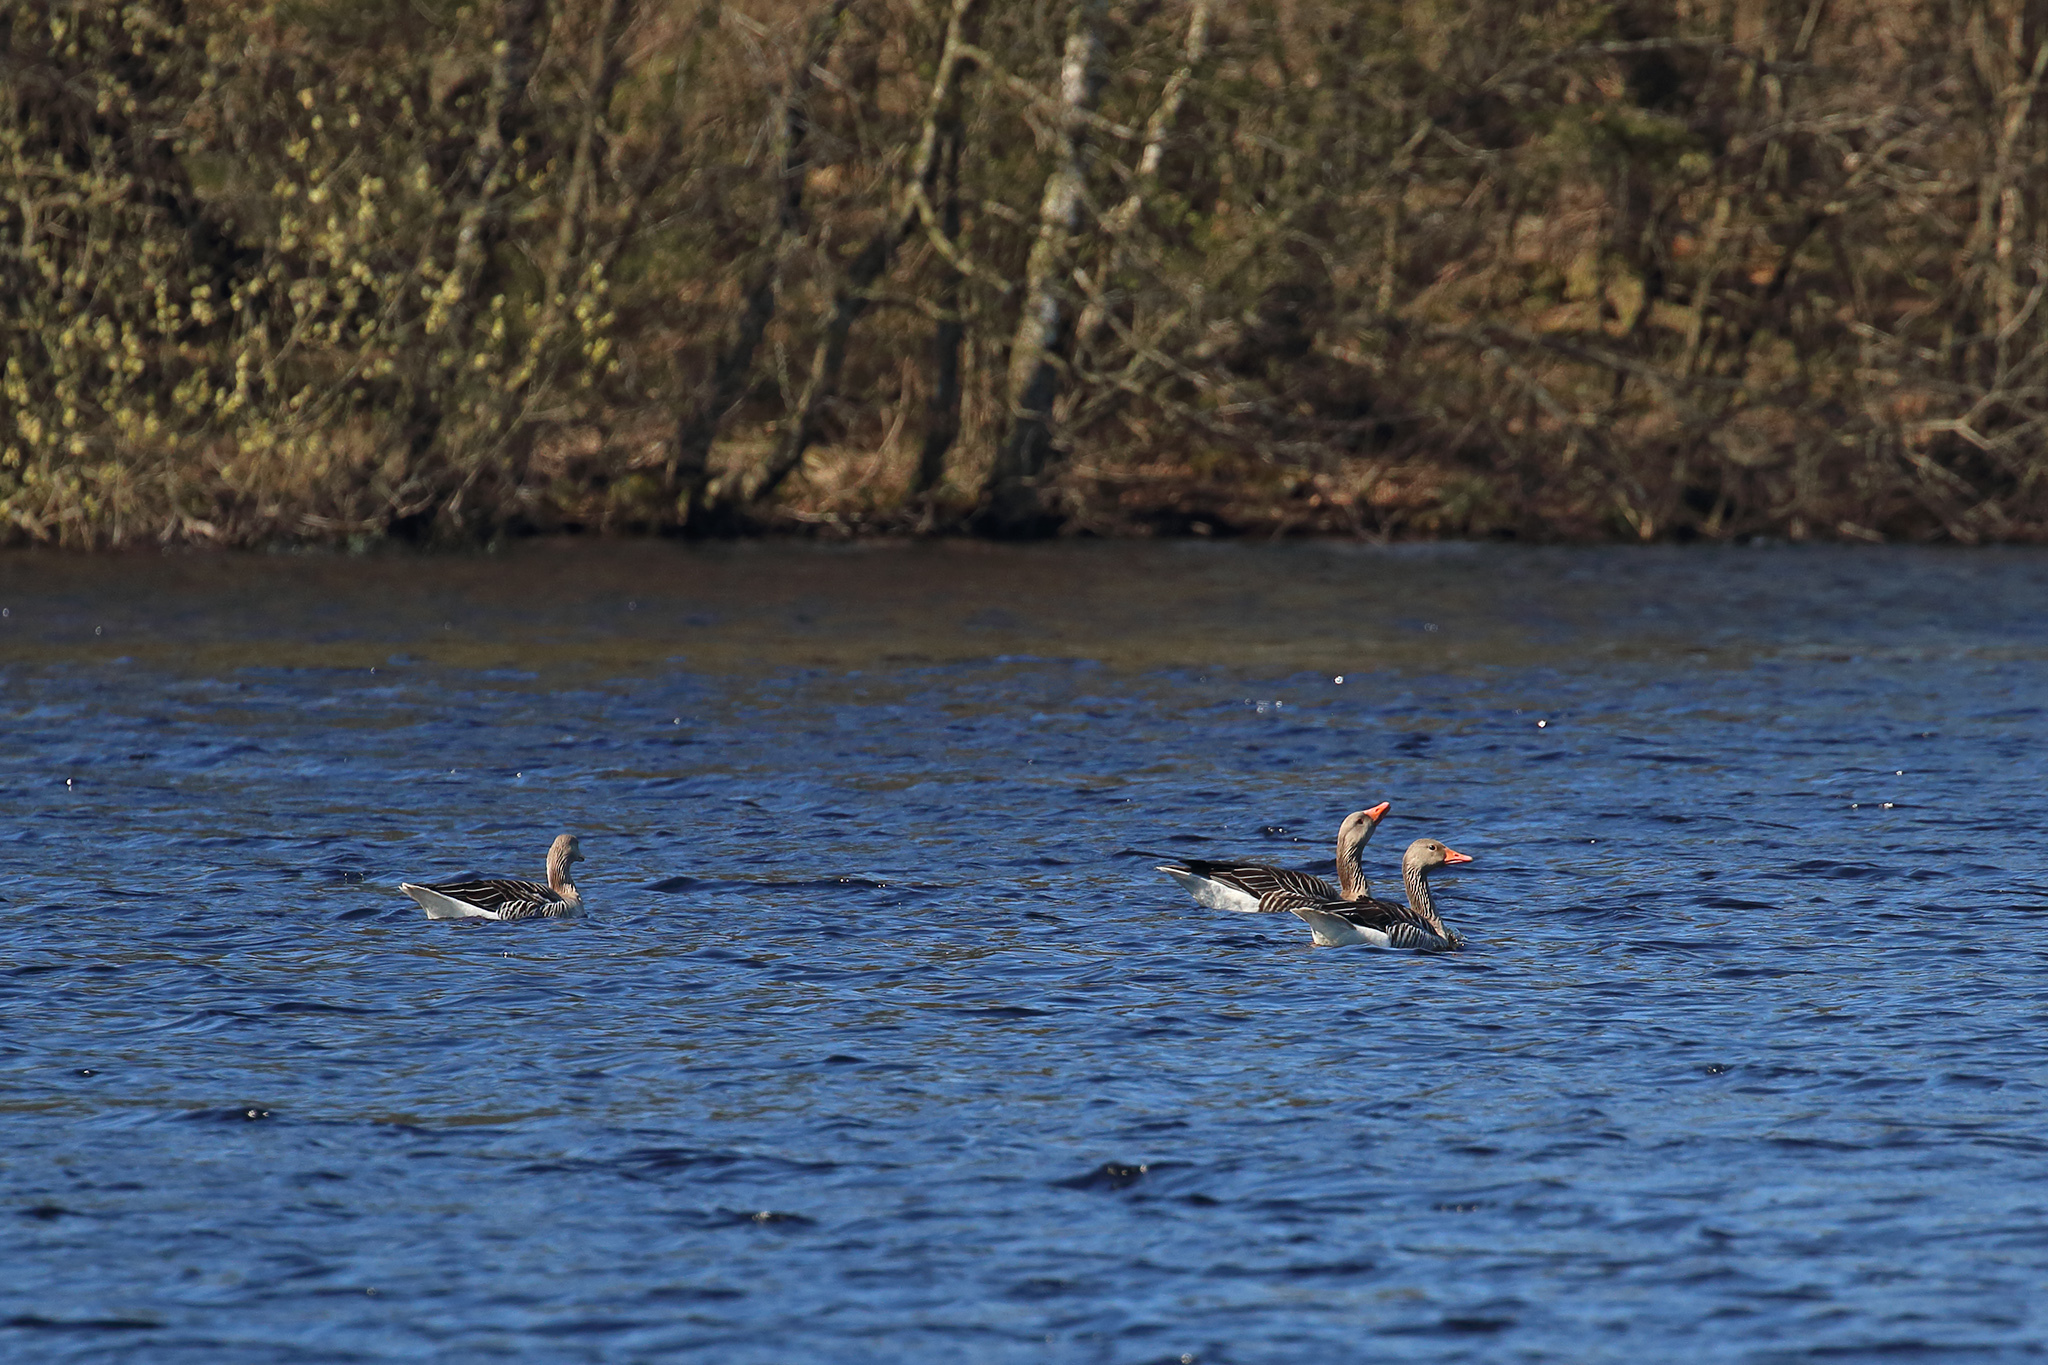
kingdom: Animalia
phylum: Chordata
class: Aves
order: Anseriformes
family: Anatidae
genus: Anser
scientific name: Anser anser
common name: Greylag goose
